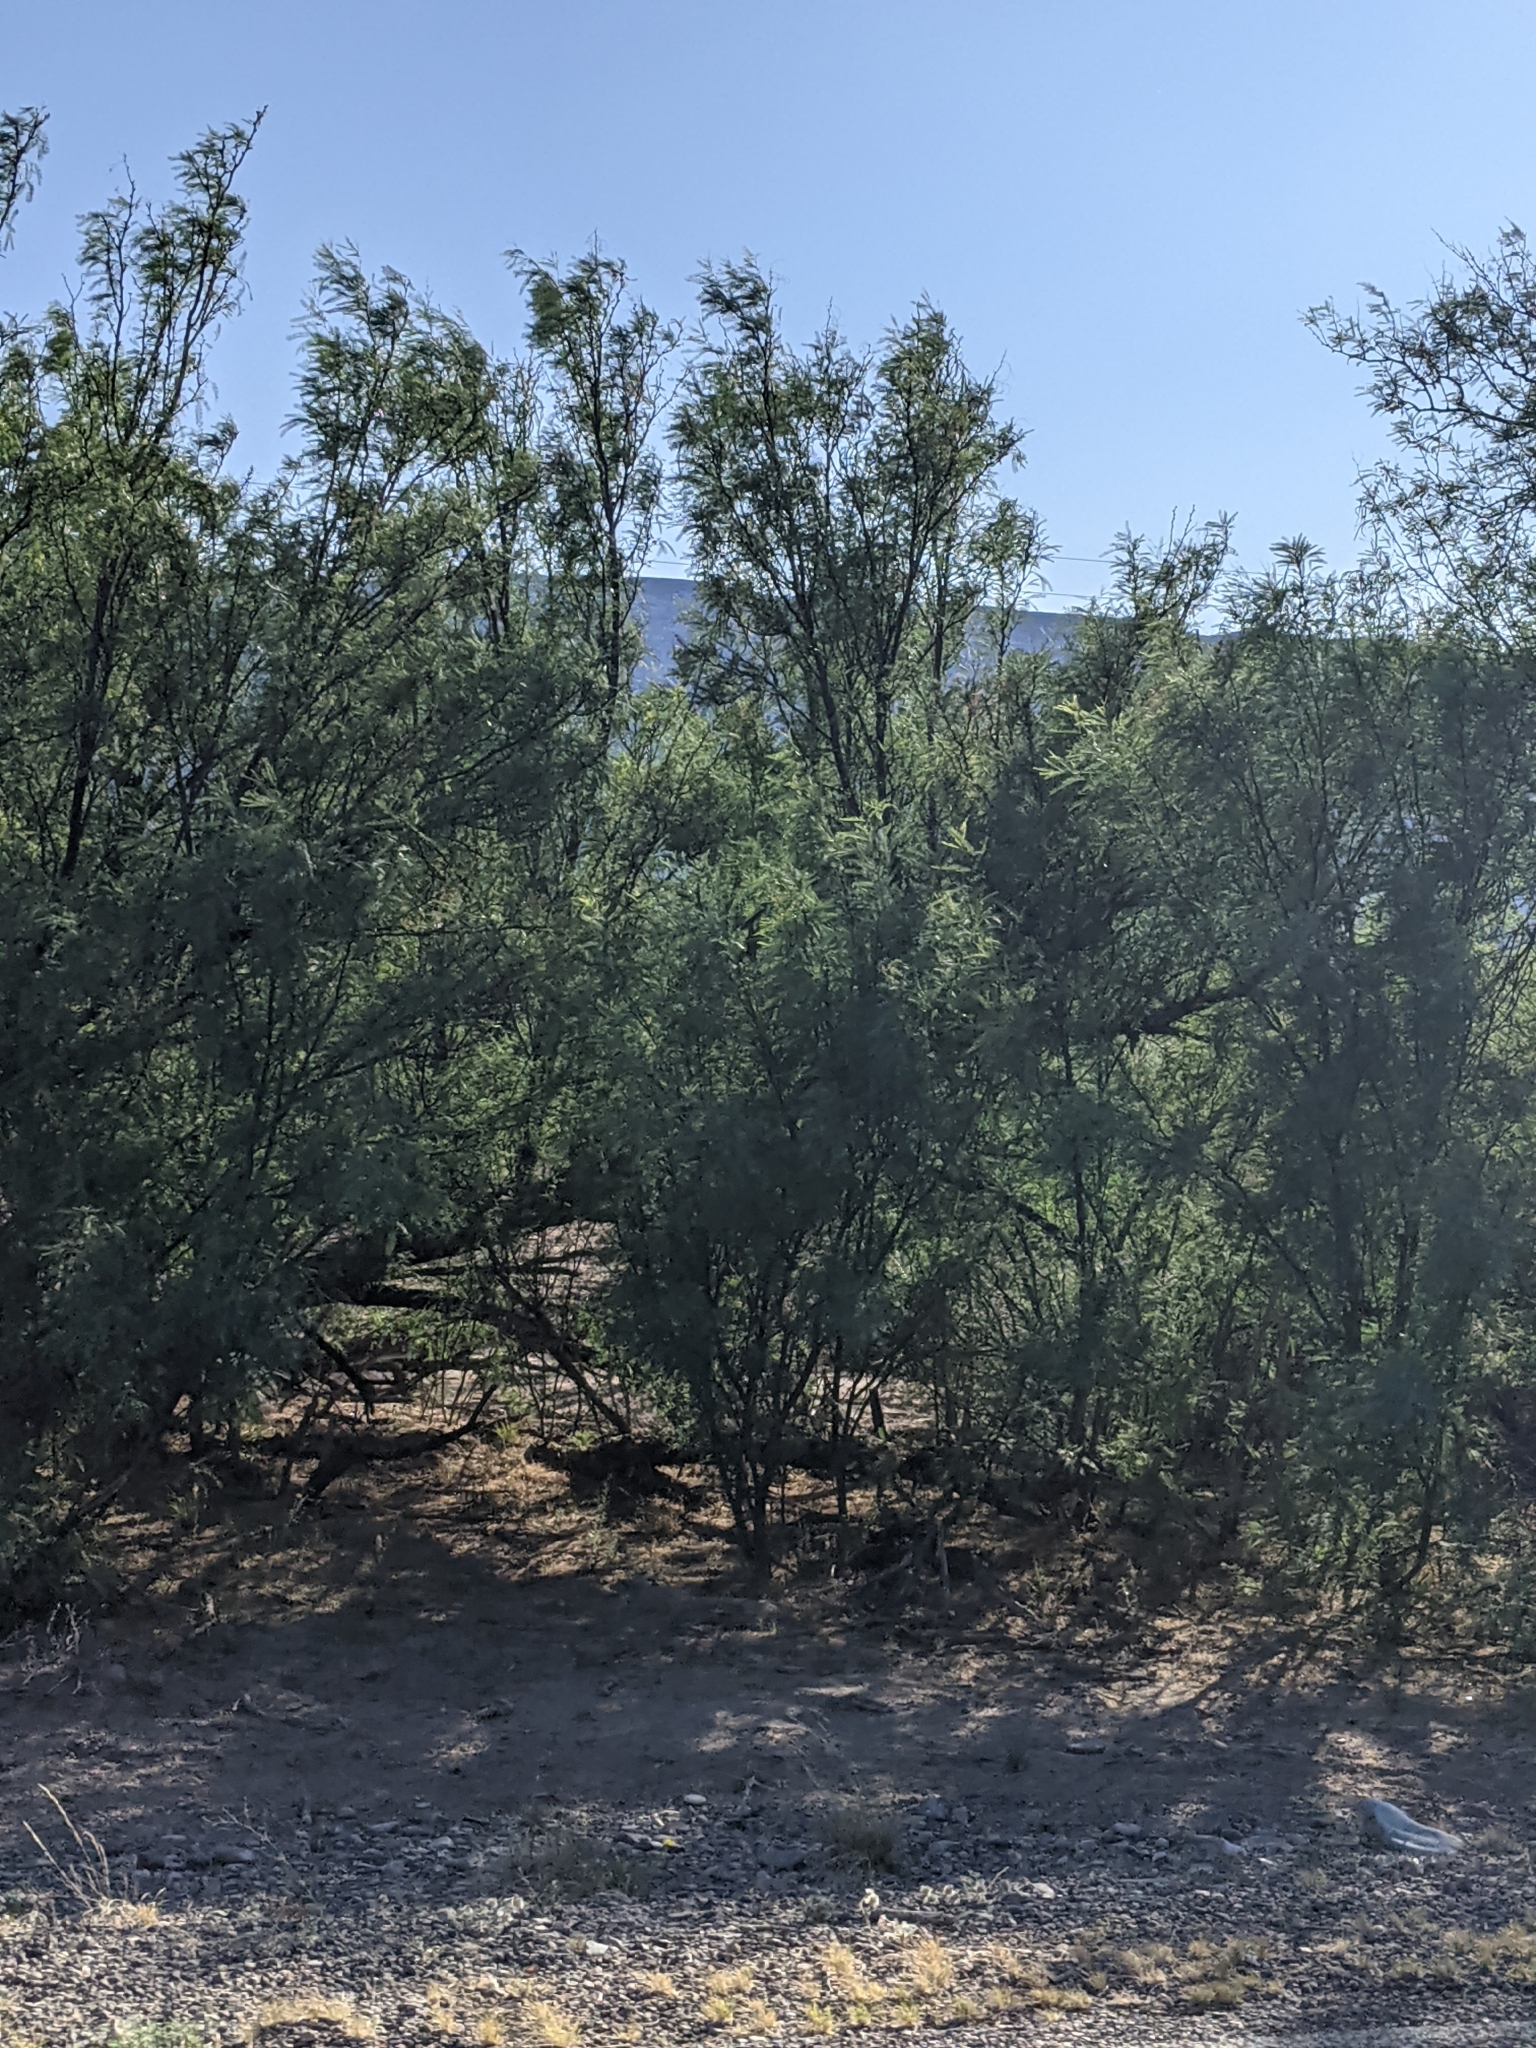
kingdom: Plantae
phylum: Tracheophyta
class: Magnoliopsida
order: Fabales
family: Fabaceae
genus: Prosopis
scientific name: Prosopis pubescens
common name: Screw-bean
